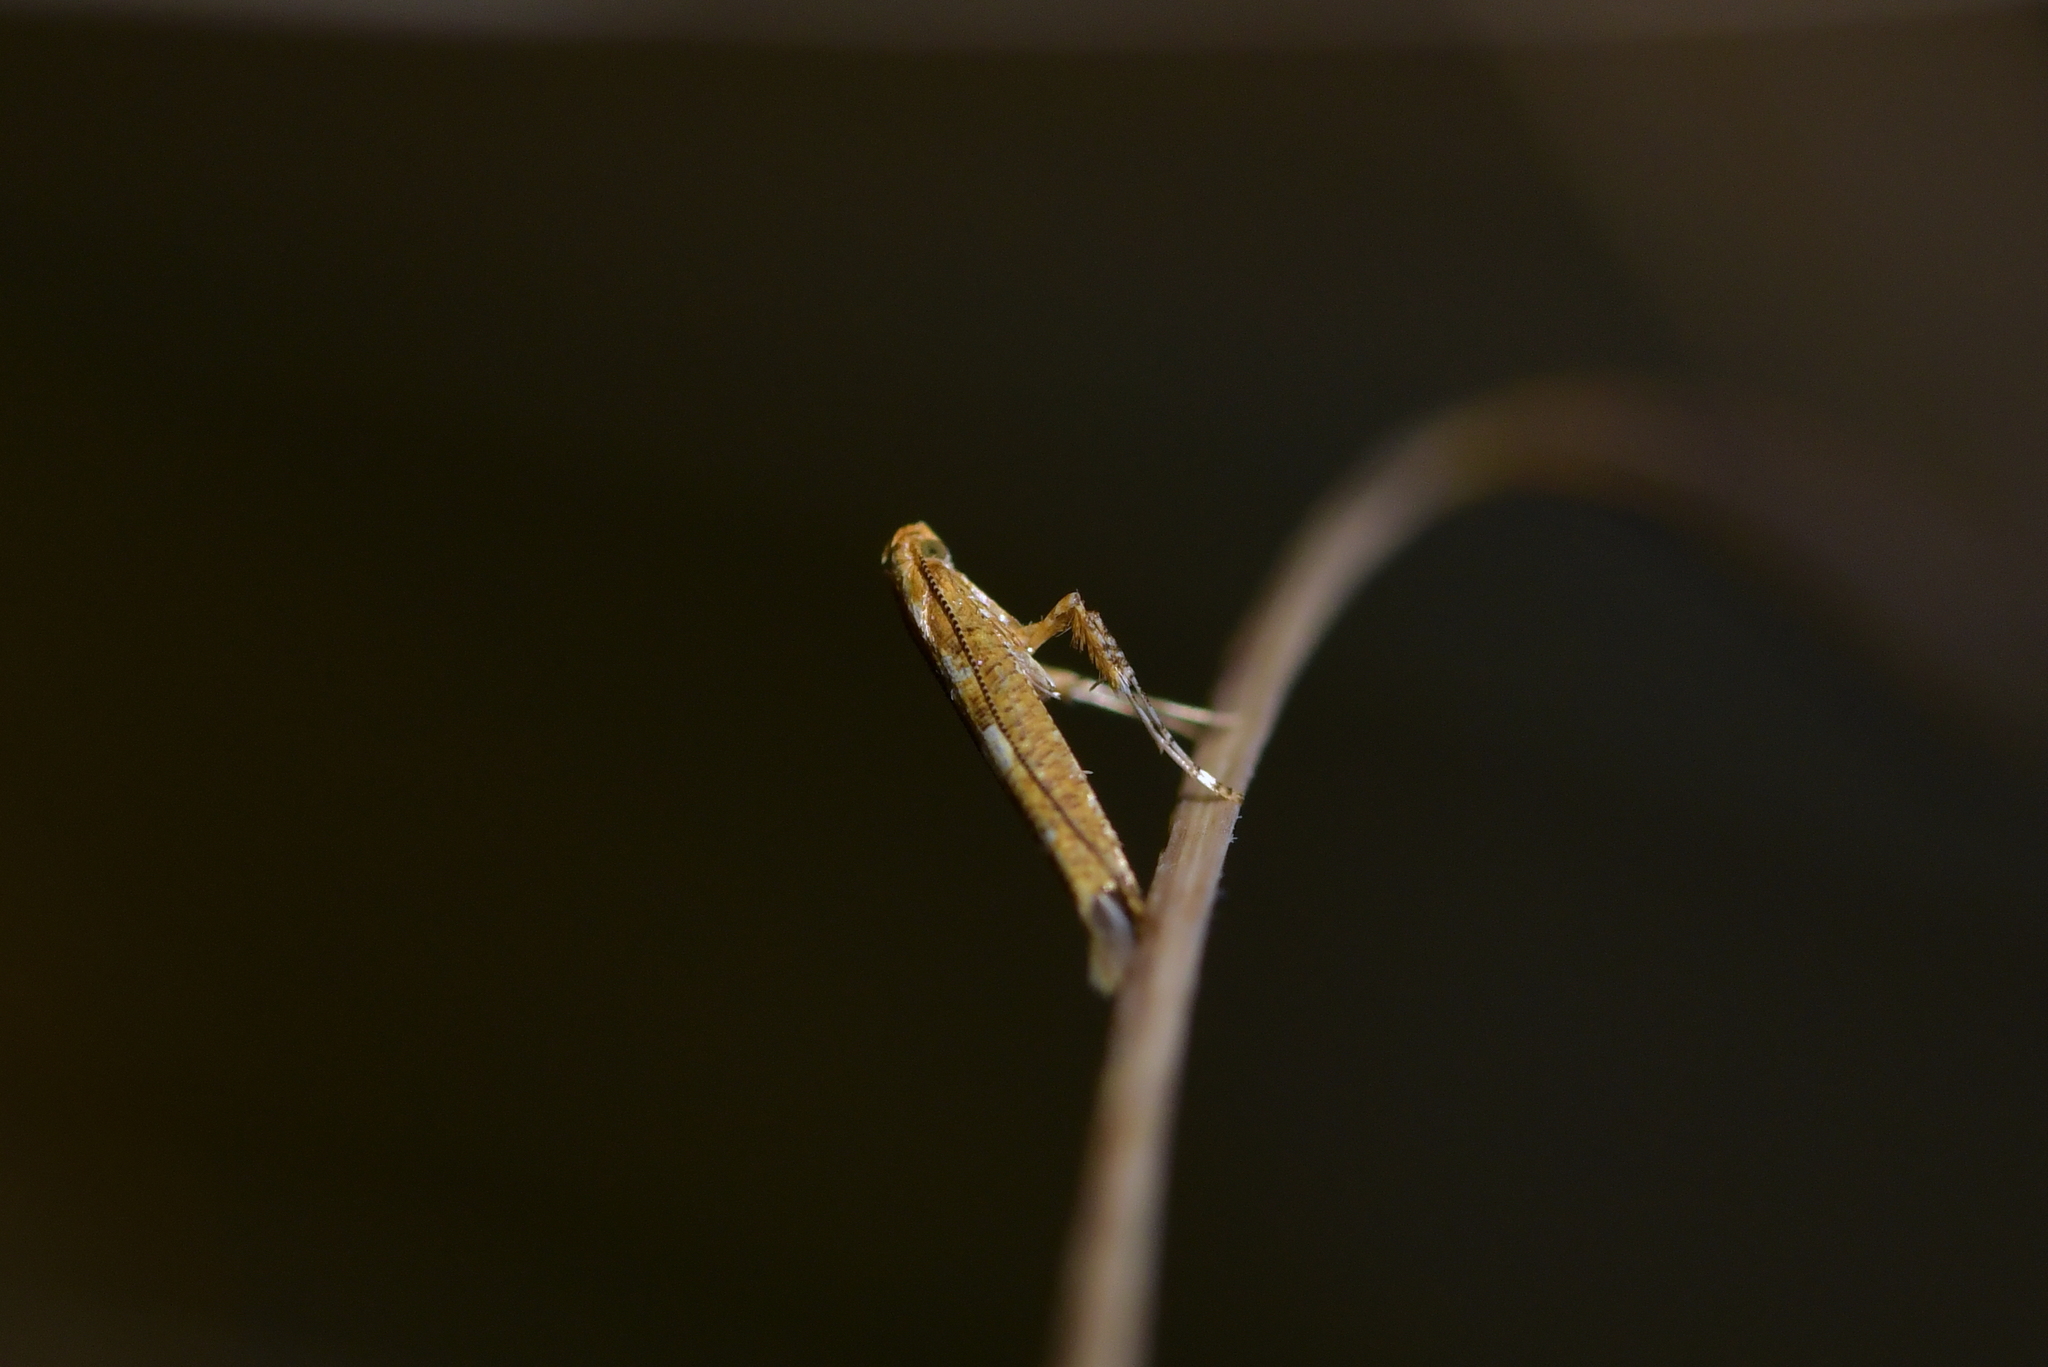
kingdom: Animalia
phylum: Arthropoda
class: Insecta
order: Lepidoptera
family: Gracillariidae
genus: Caloptilia
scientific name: Caloptilia selenitis
